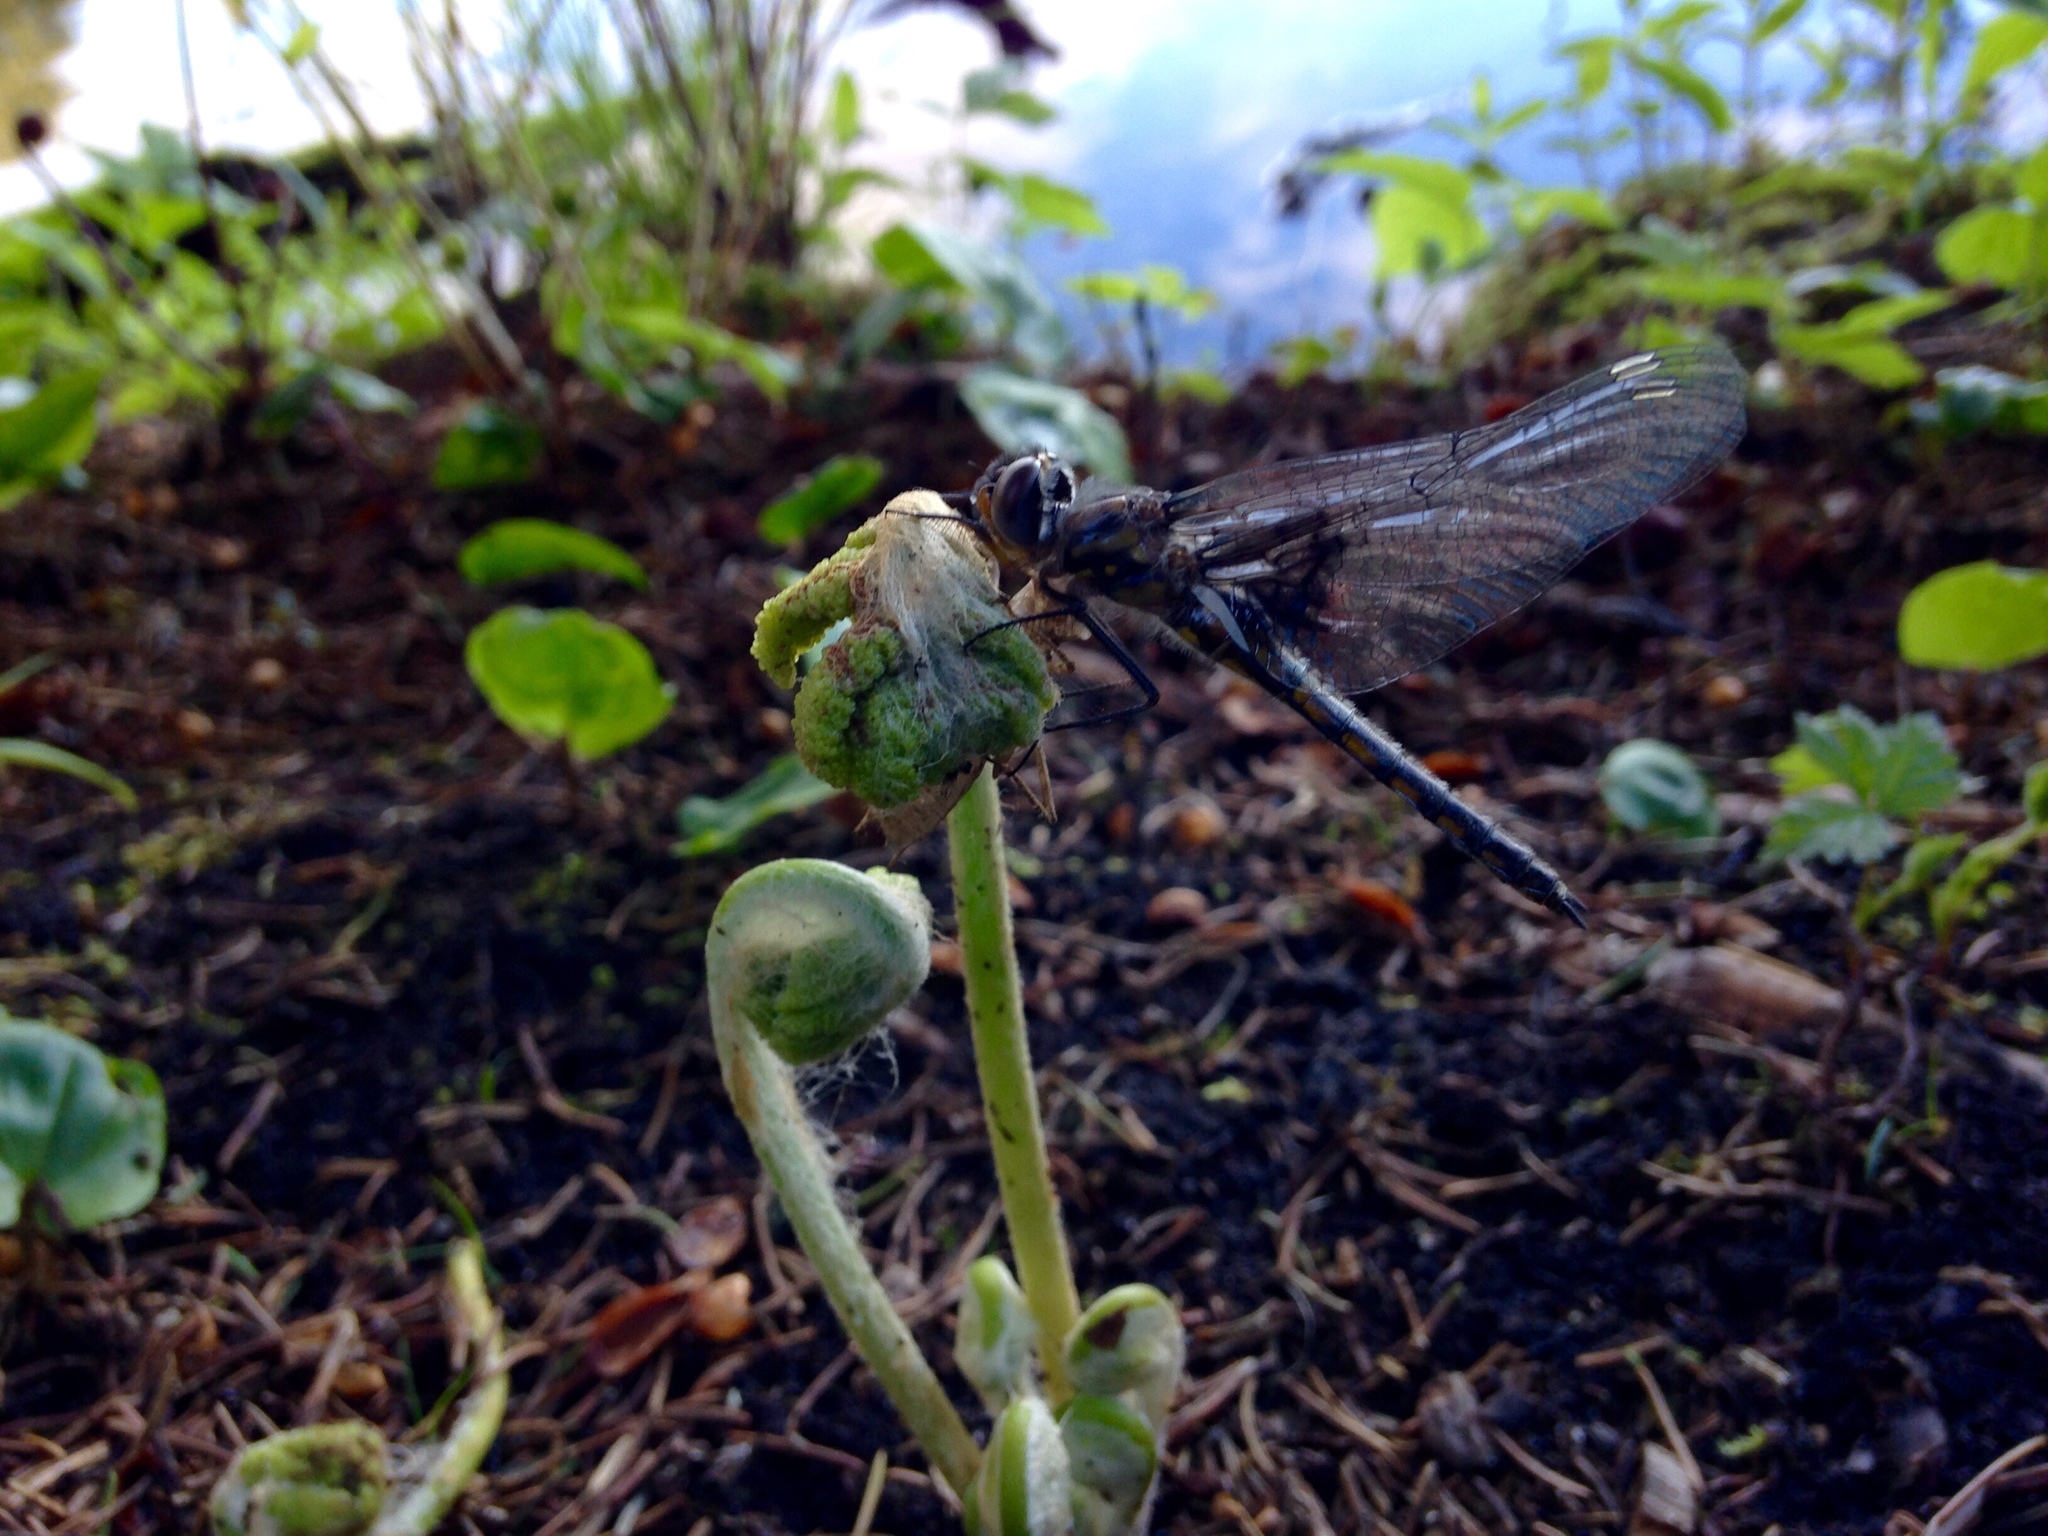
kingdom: Animalia
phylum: Arthropoda
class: Insecta
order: Odonata
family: Corduliidae
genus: Epitheca
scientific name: Epitheca cynosura
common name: Common baskettail
